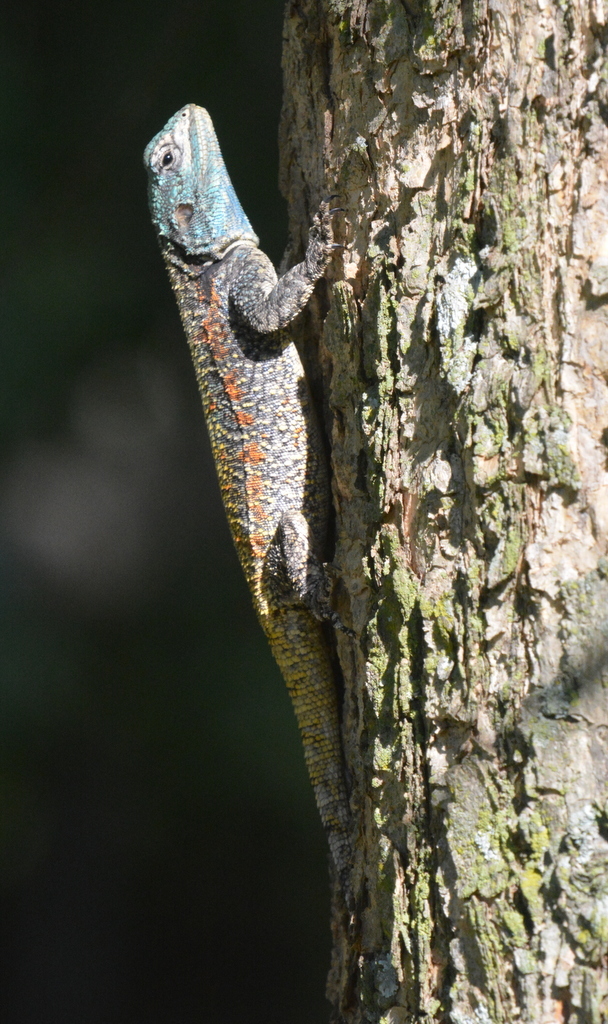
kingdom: Animalia
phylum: Chordata
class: Squamata
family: Agamidae
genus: Acanthocercus
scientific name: Acanthocercus atricollis
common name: Southern tree agama
